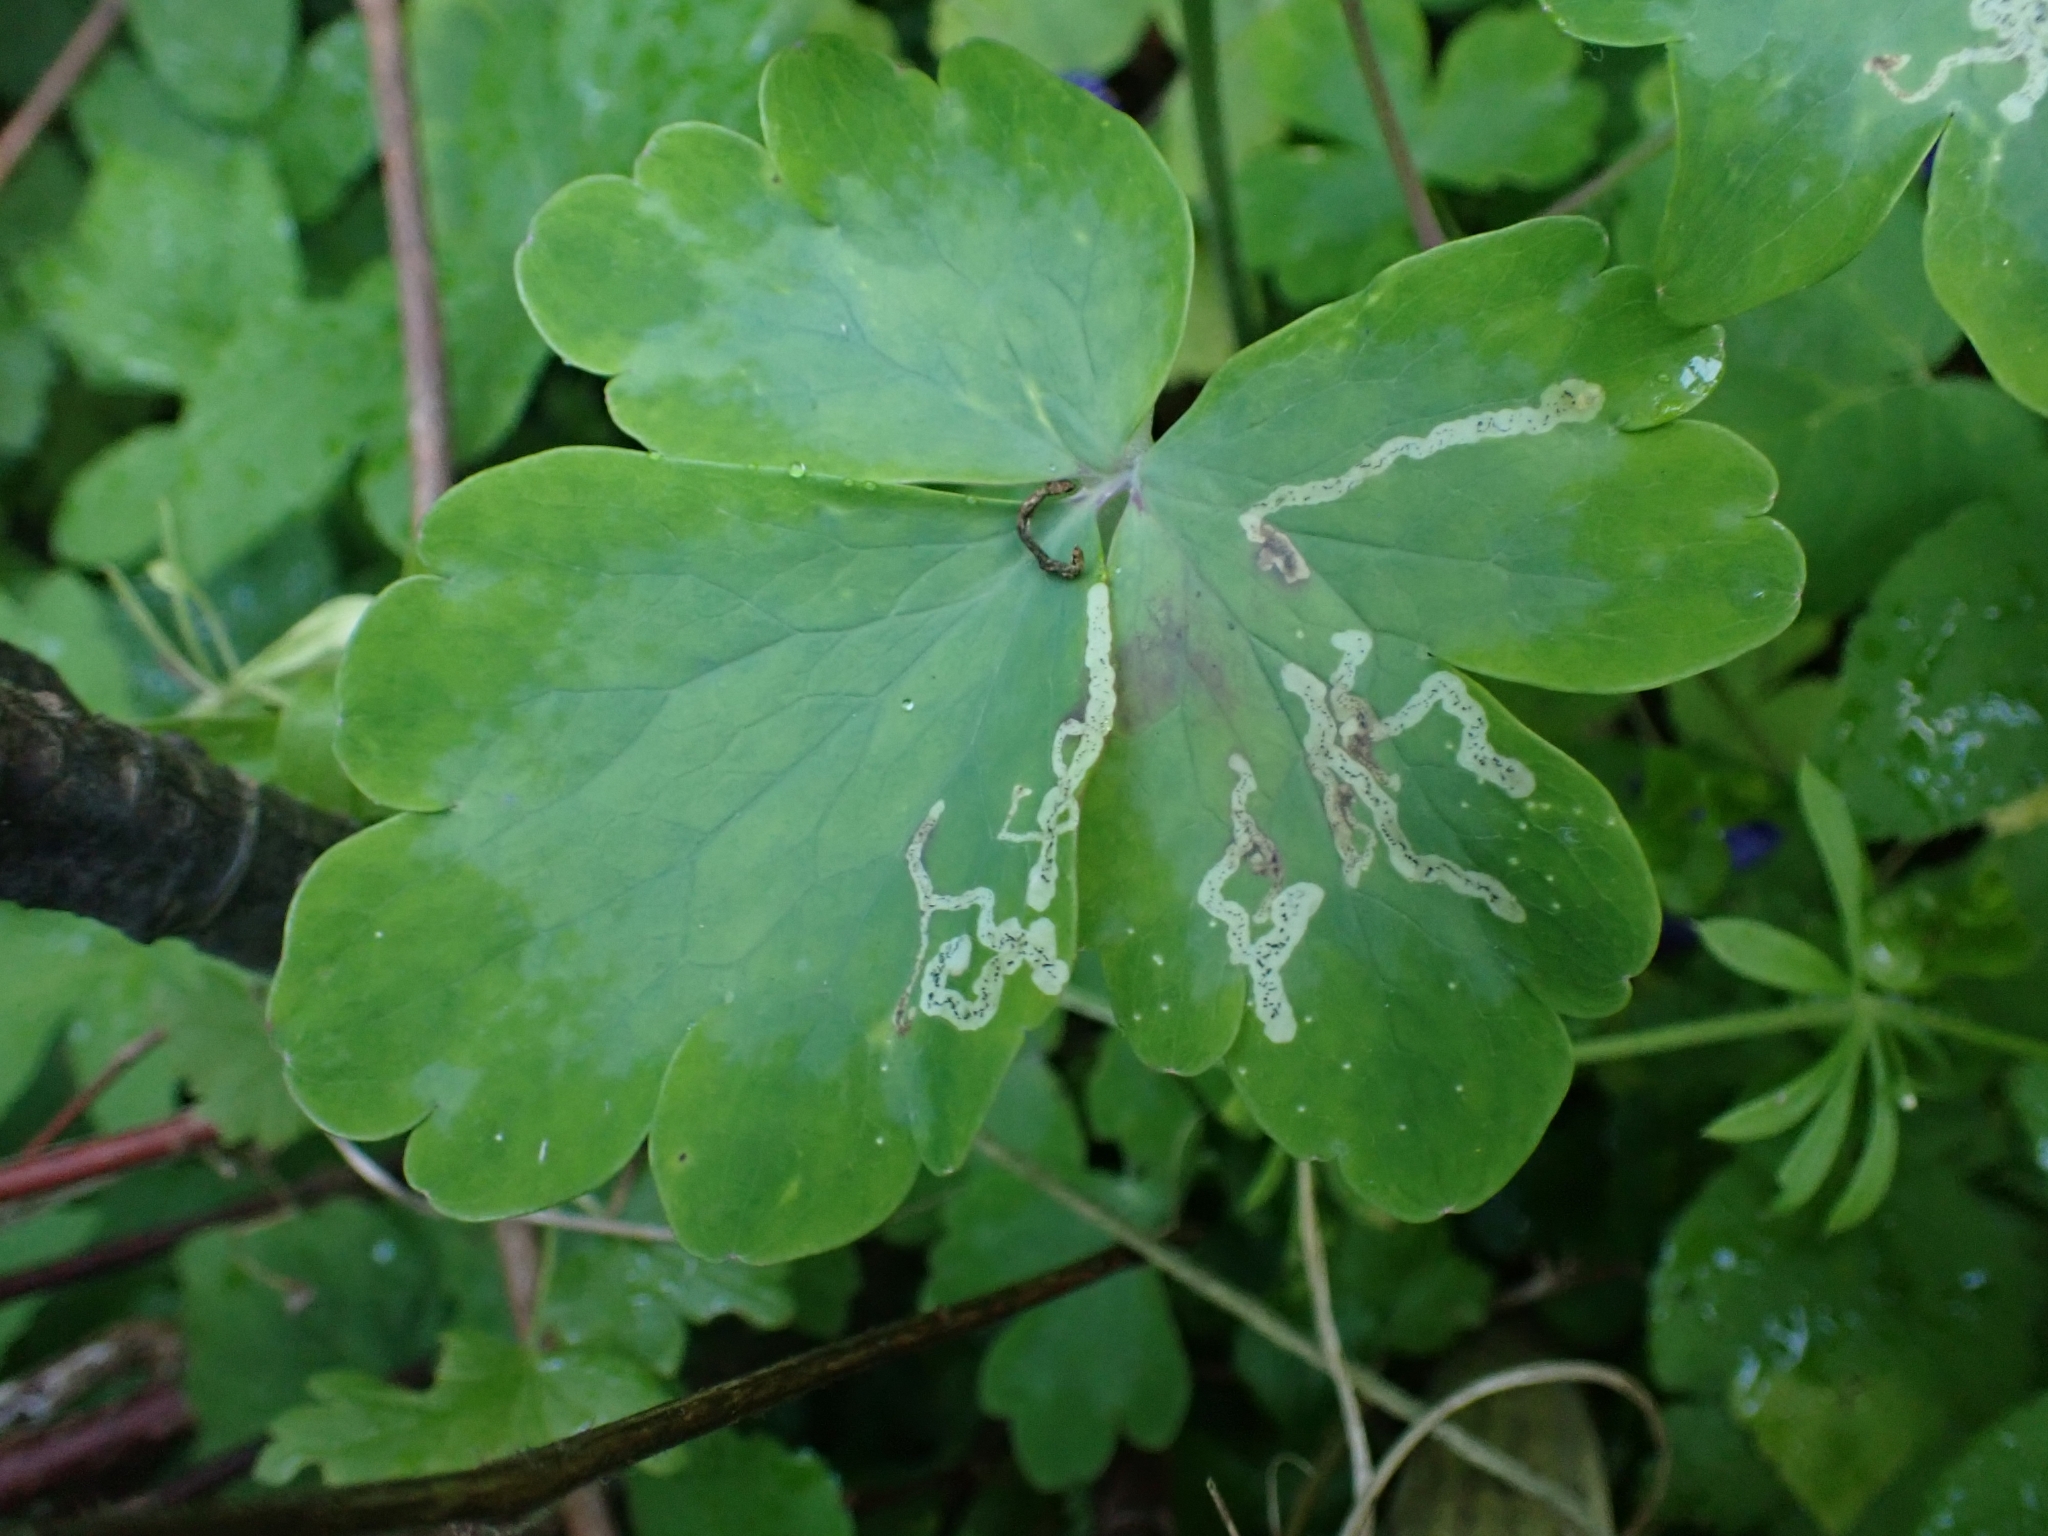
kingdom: Animalia
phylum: Arthropoda
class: Insecta
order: Diptera
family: Agromyzidae
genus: Phytomyza
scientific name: Phytomyza ancholiae
